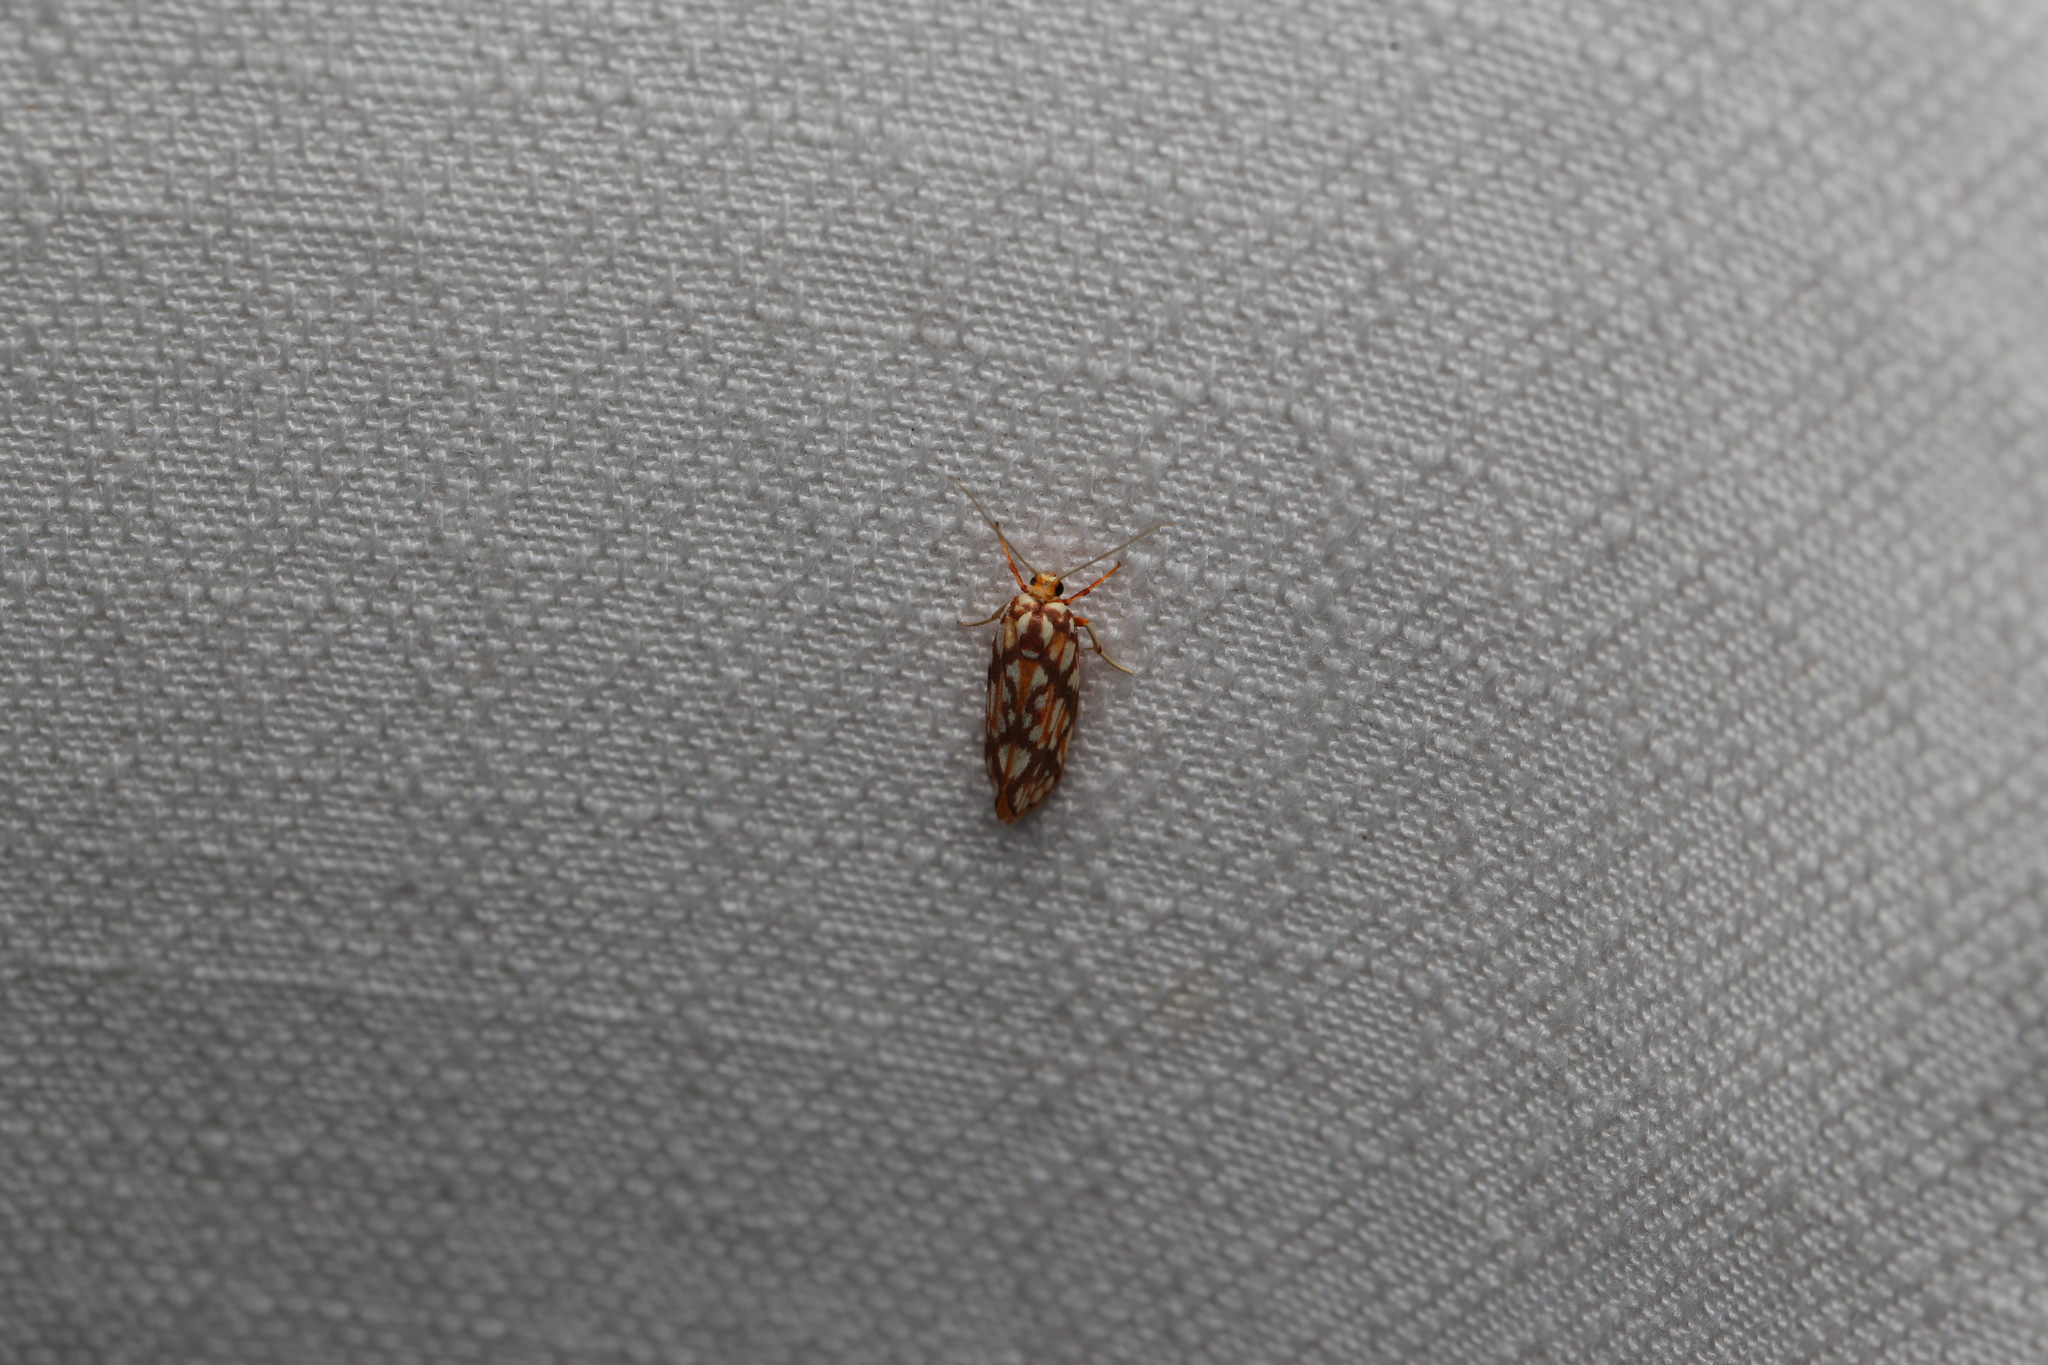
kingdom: Animalia
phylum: Arthropoda
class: Insecta
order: Lepidoptera
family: Lacturidae
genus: Lactura
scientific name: Lactura panopsia
